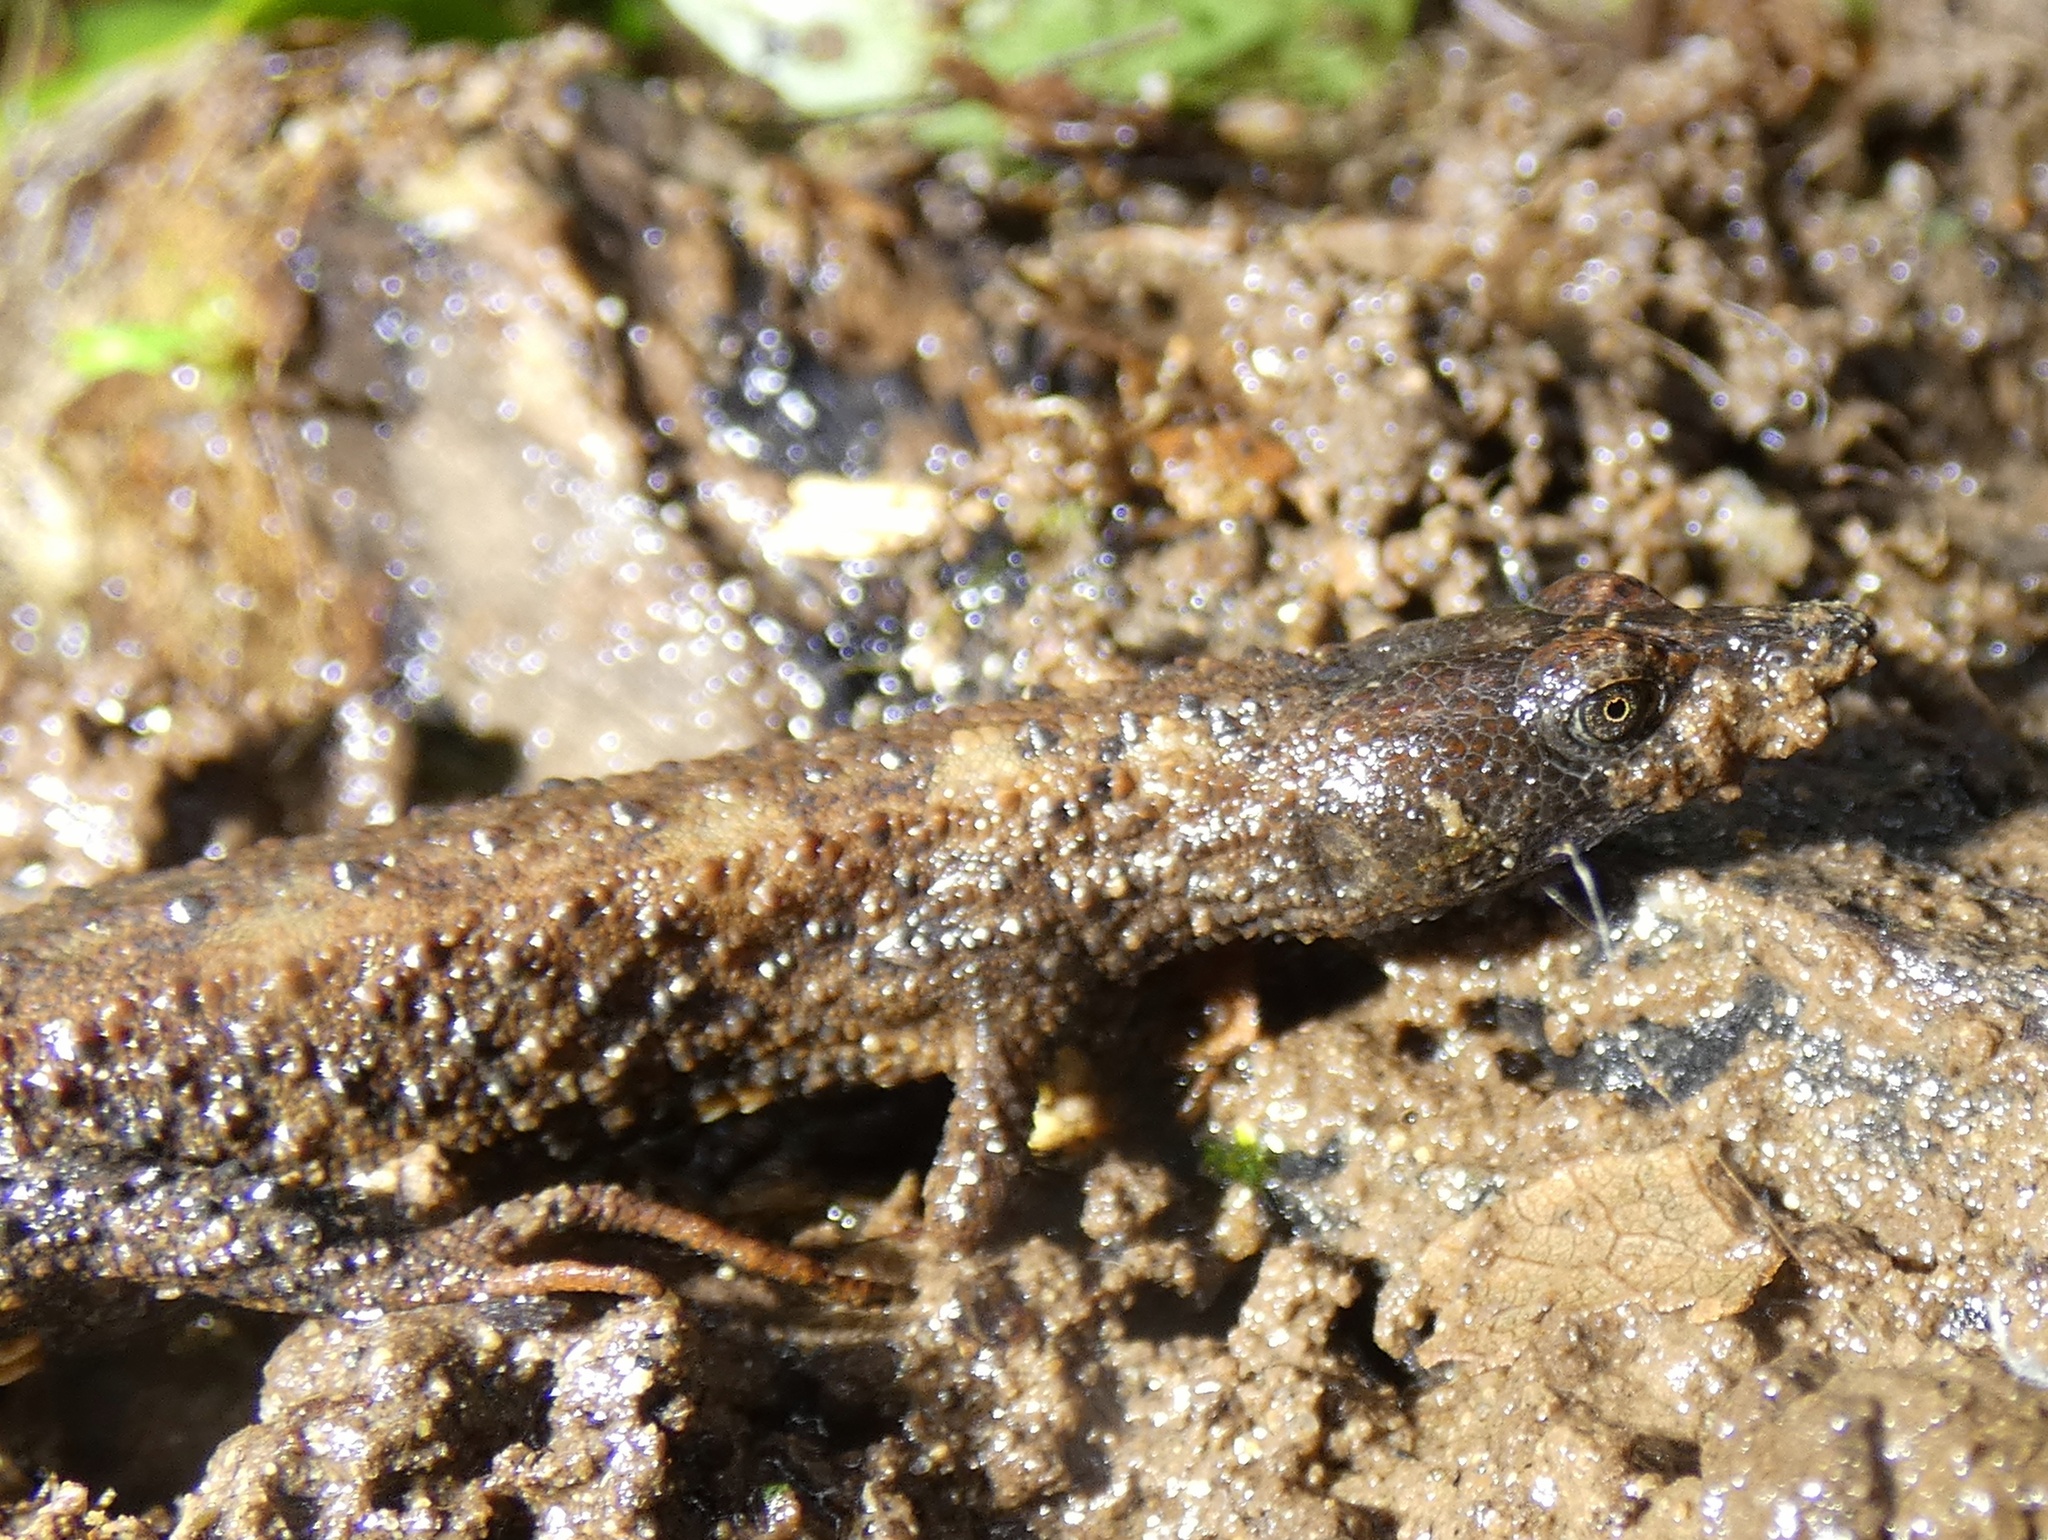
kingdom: Animalia
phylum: Chordata
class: Squamata
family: Gymnophthalmidae
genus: Echinosaura
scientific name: Echinosaura panamensis
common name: Panama teiid
